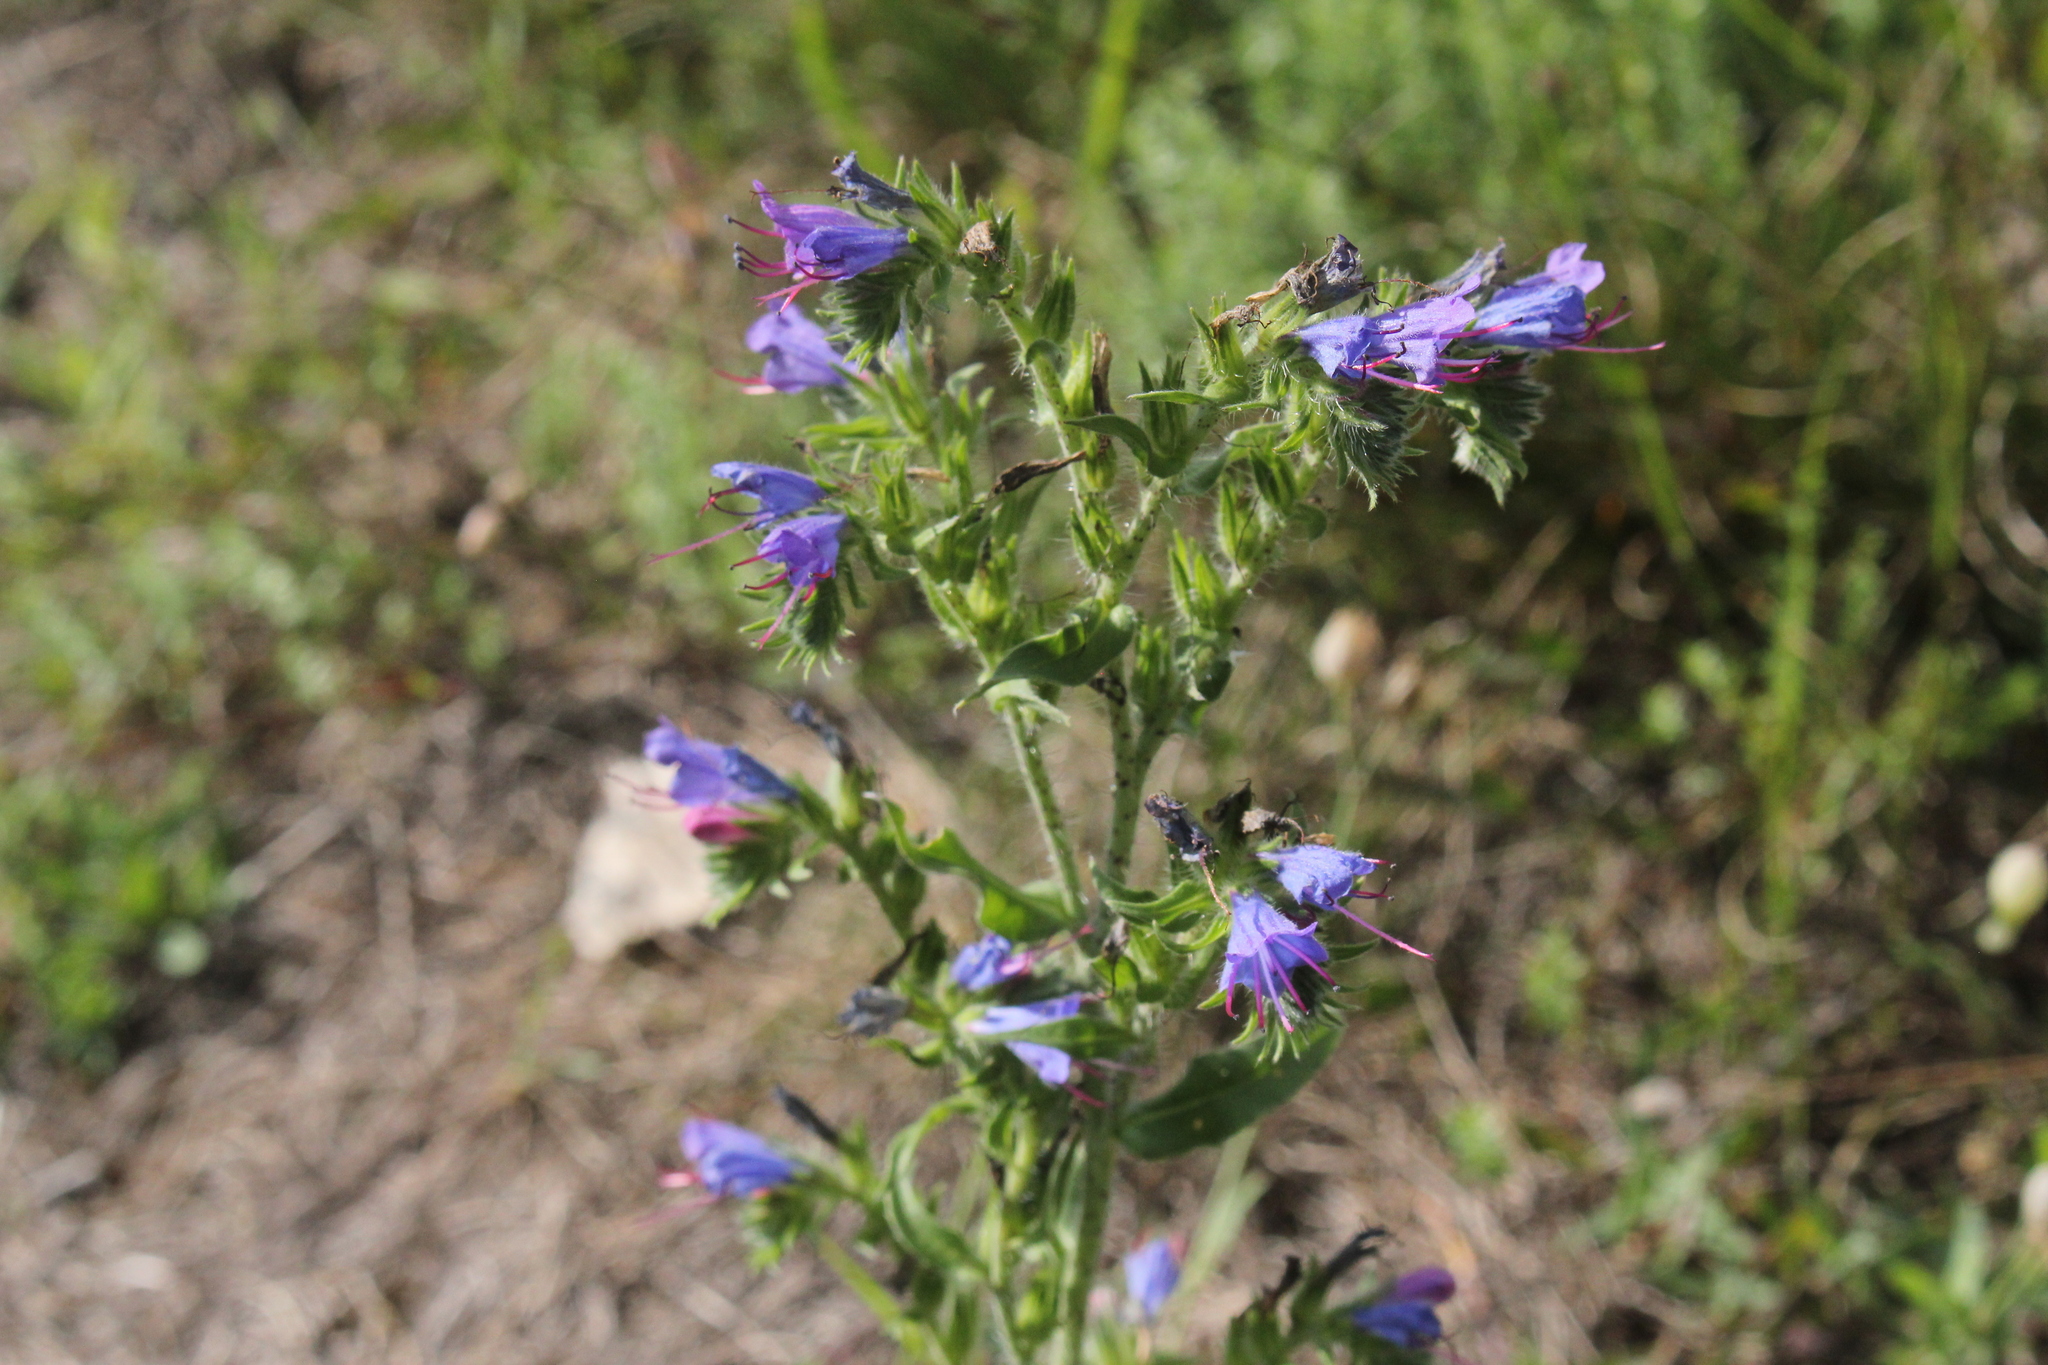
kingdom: Plantae
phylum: Tracheophyta
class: Magnoliopsida
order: Boraginales
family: Boraginaceae
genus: Echium
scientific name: Echium vulgare
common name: Common viper's bugloss
